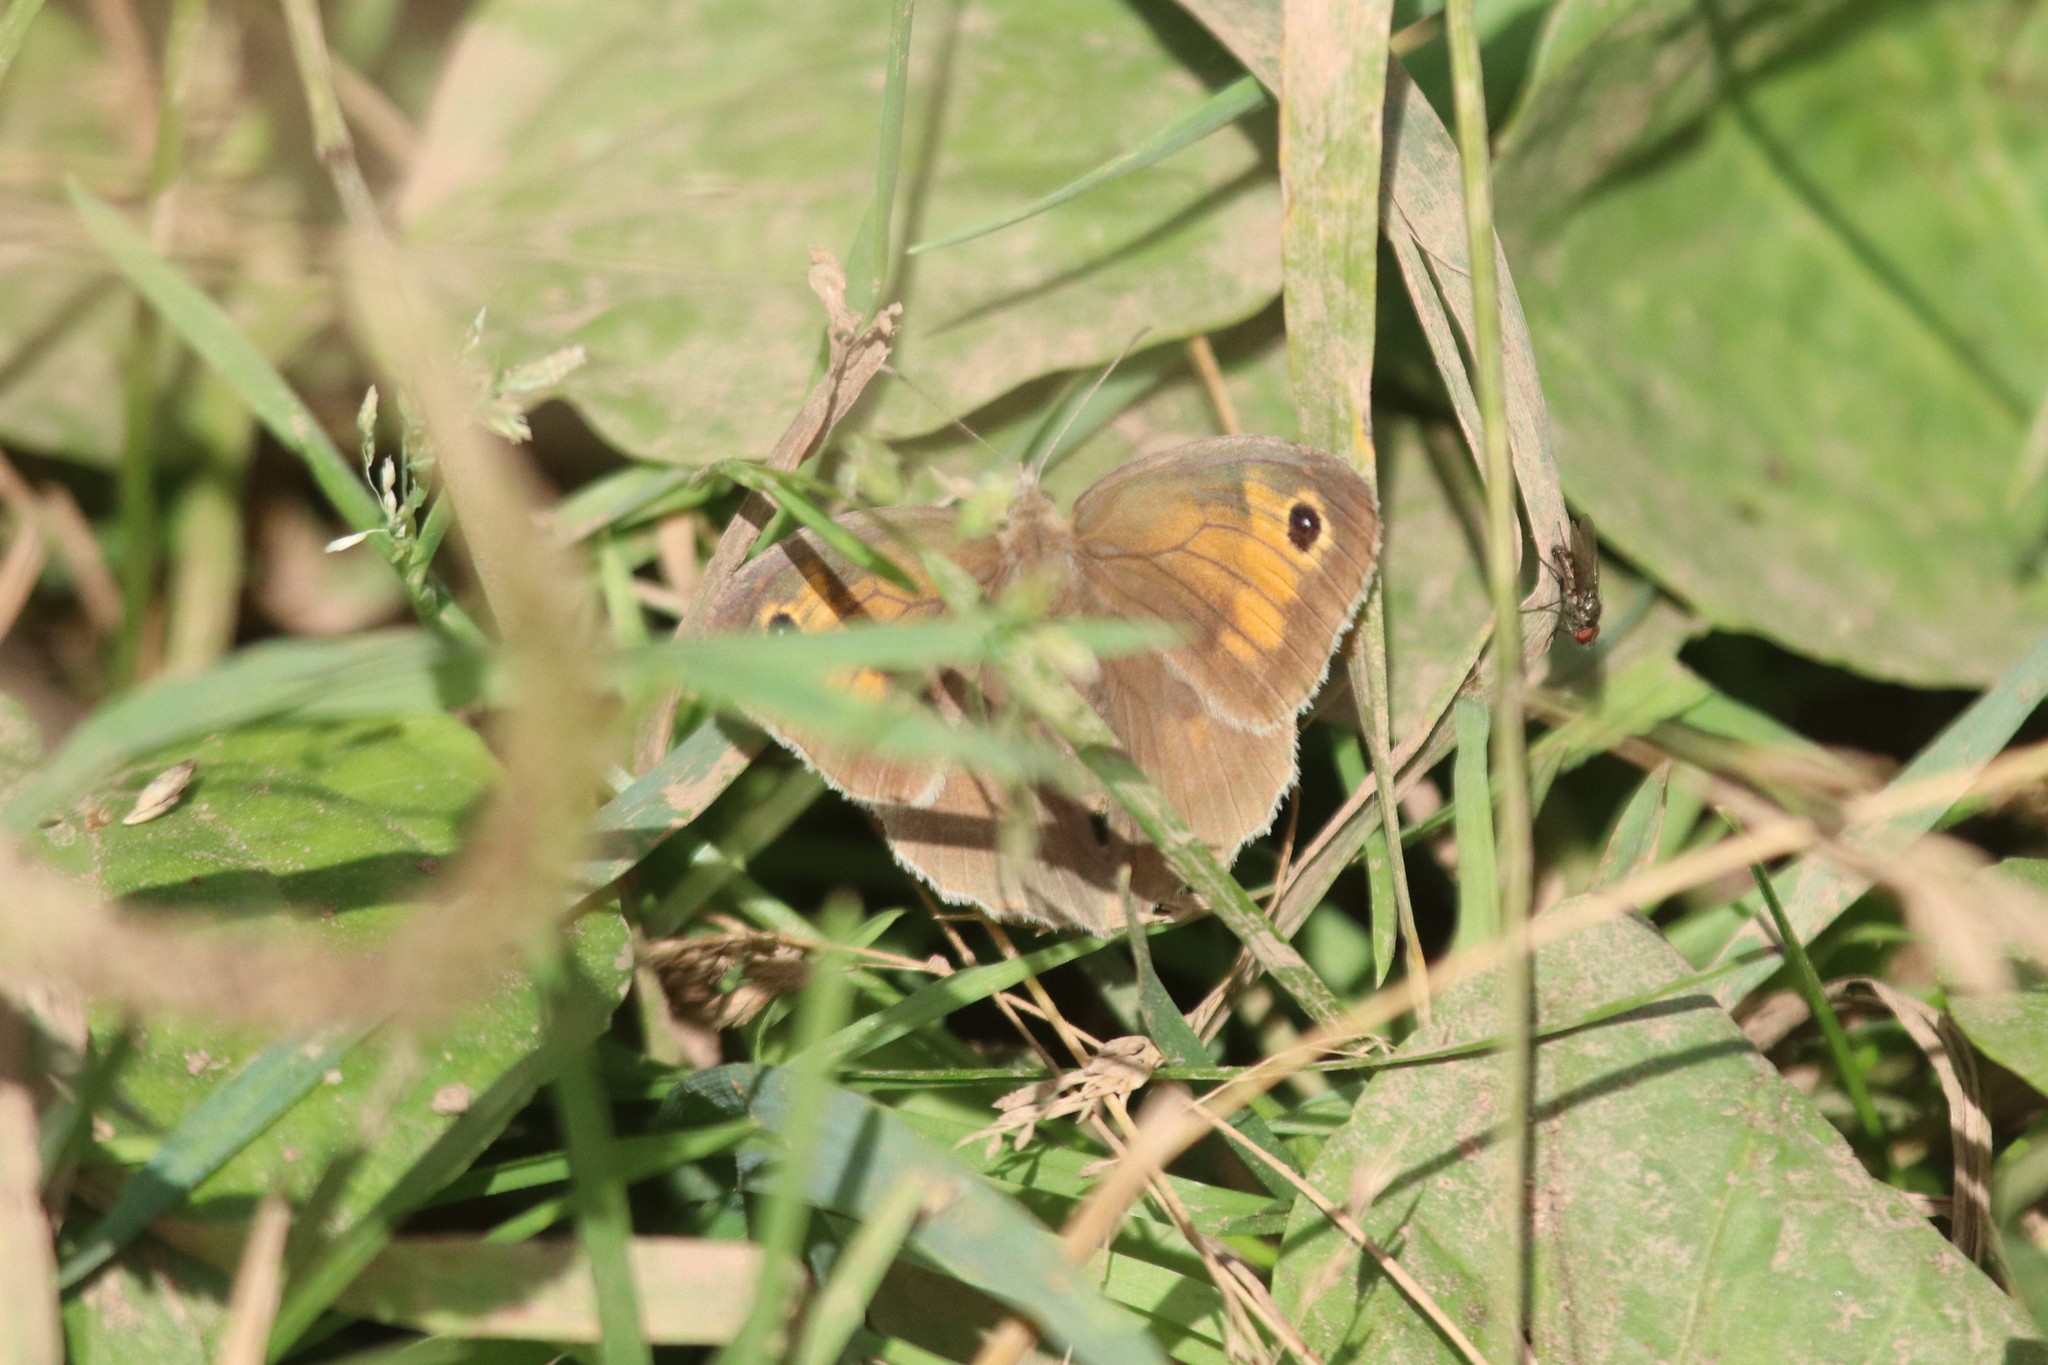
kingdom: Animalia
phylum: Arthropoda
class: Insecta
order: Lepidoptera
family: Nymphalidae
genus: Maniola
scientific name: Maniola jurtina
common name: Meadow brown
